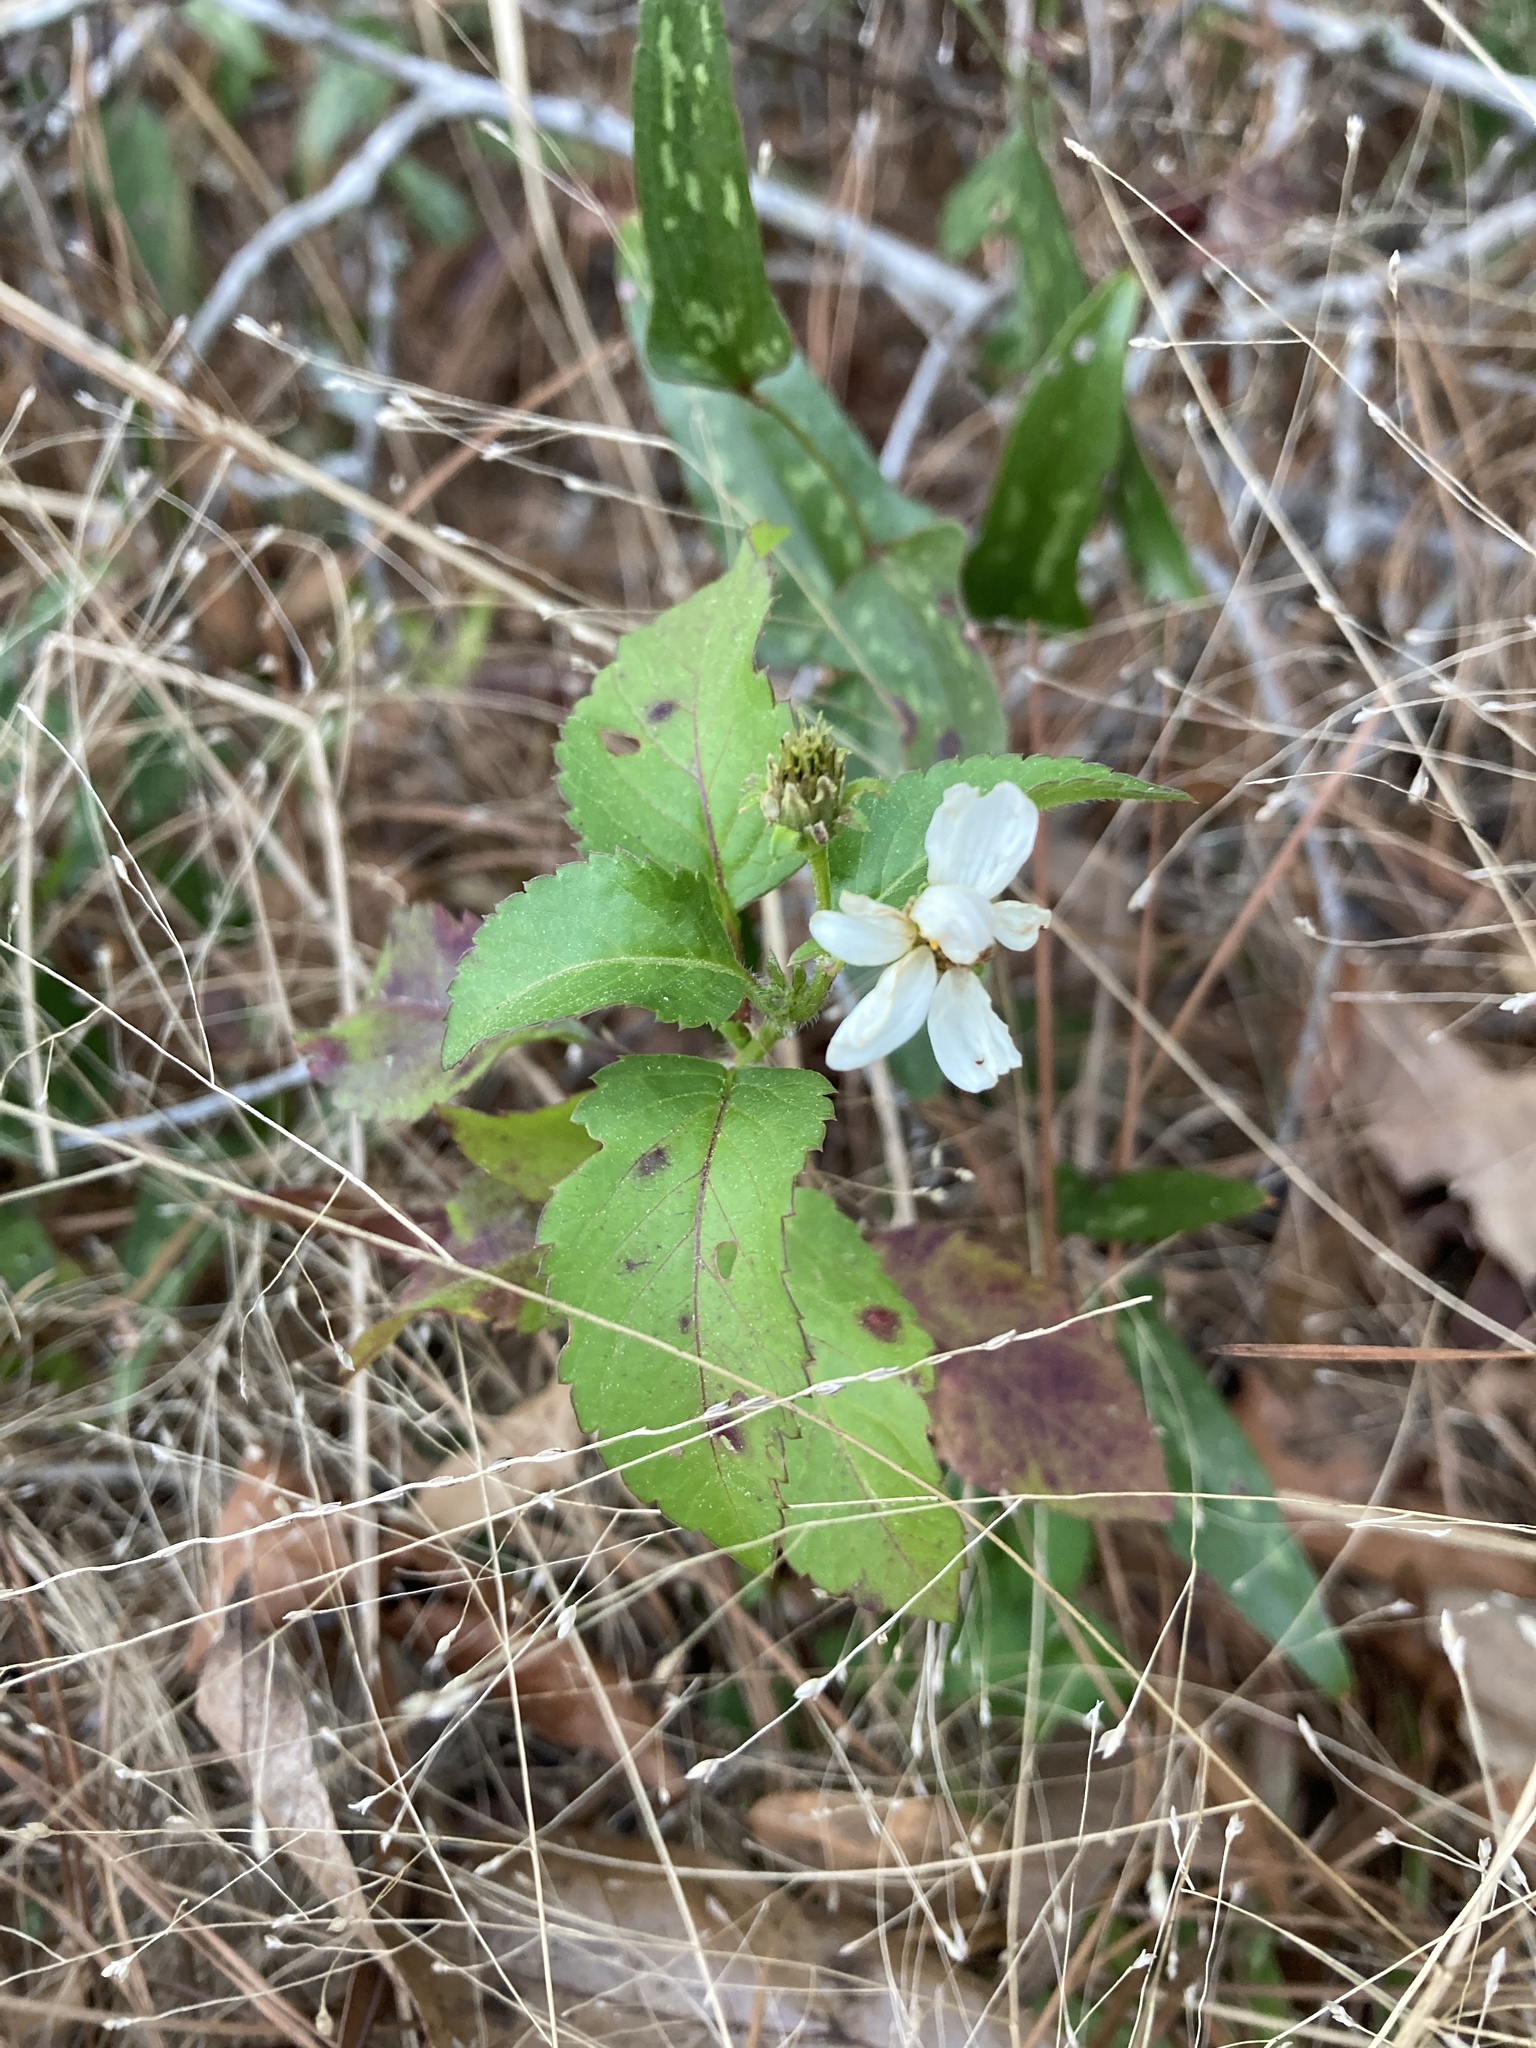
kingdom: Plantae
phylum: Tracheophyta
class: Magnoliopsida
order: Asterales
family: Asteraceae
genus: Bidens
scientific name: Bidens alba
